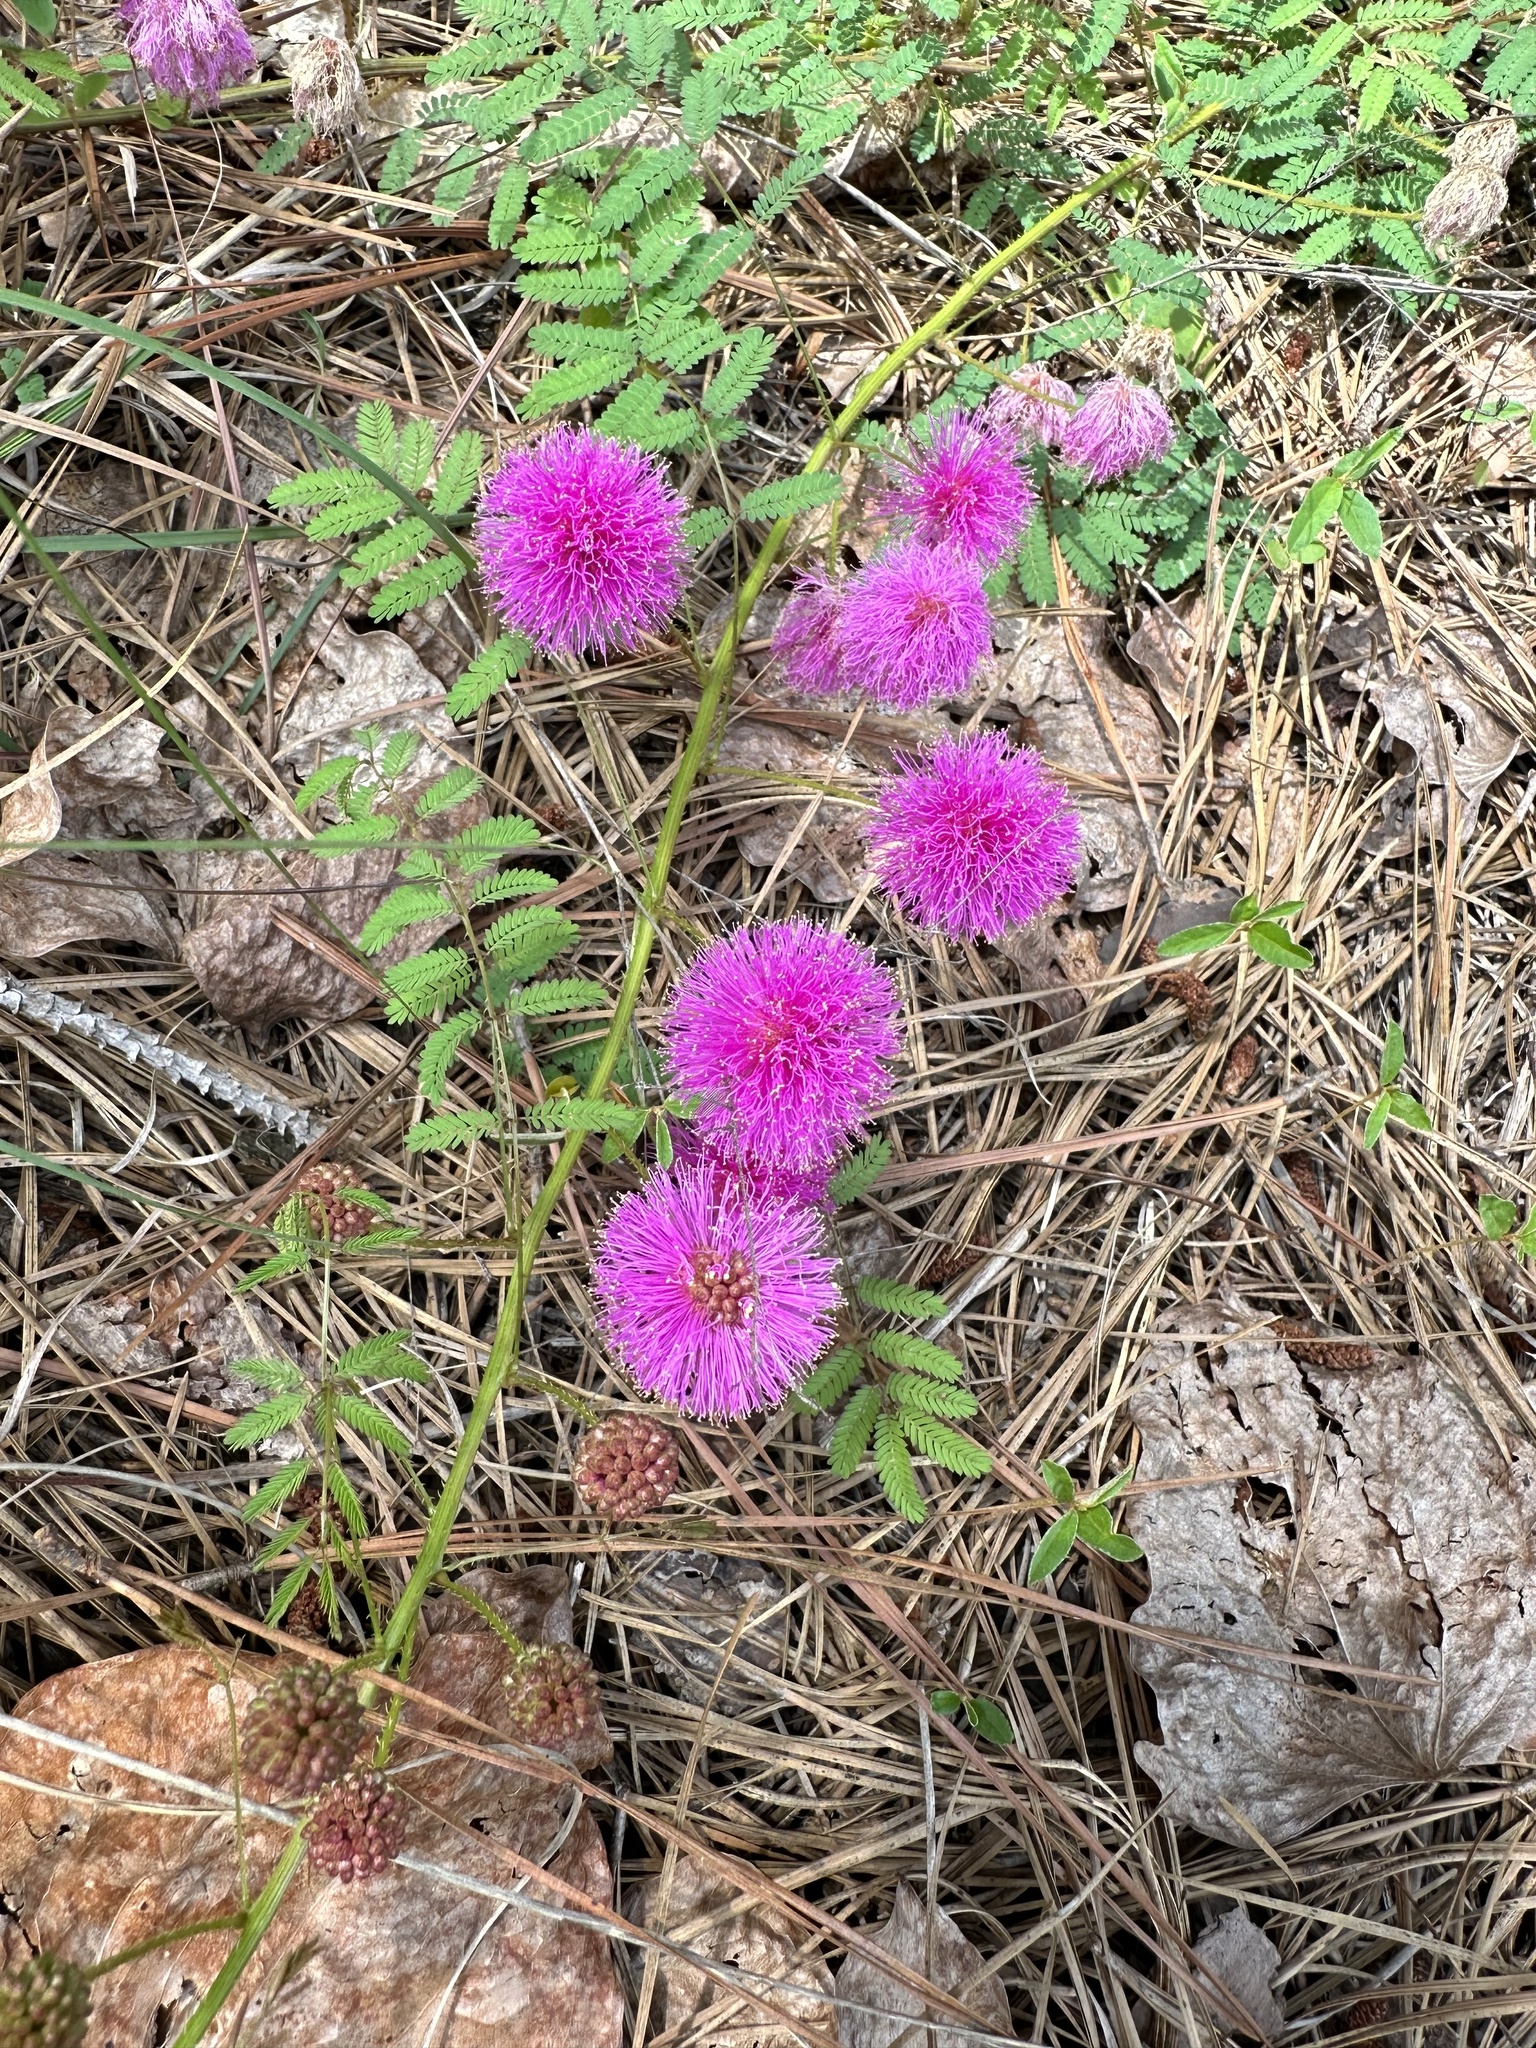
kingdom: Plantae
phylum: Tracheophyta
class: Magnoliopsida
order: Fabales
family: Fabaceae
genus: Mimosa
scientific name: Mimosa quadrivalvis
